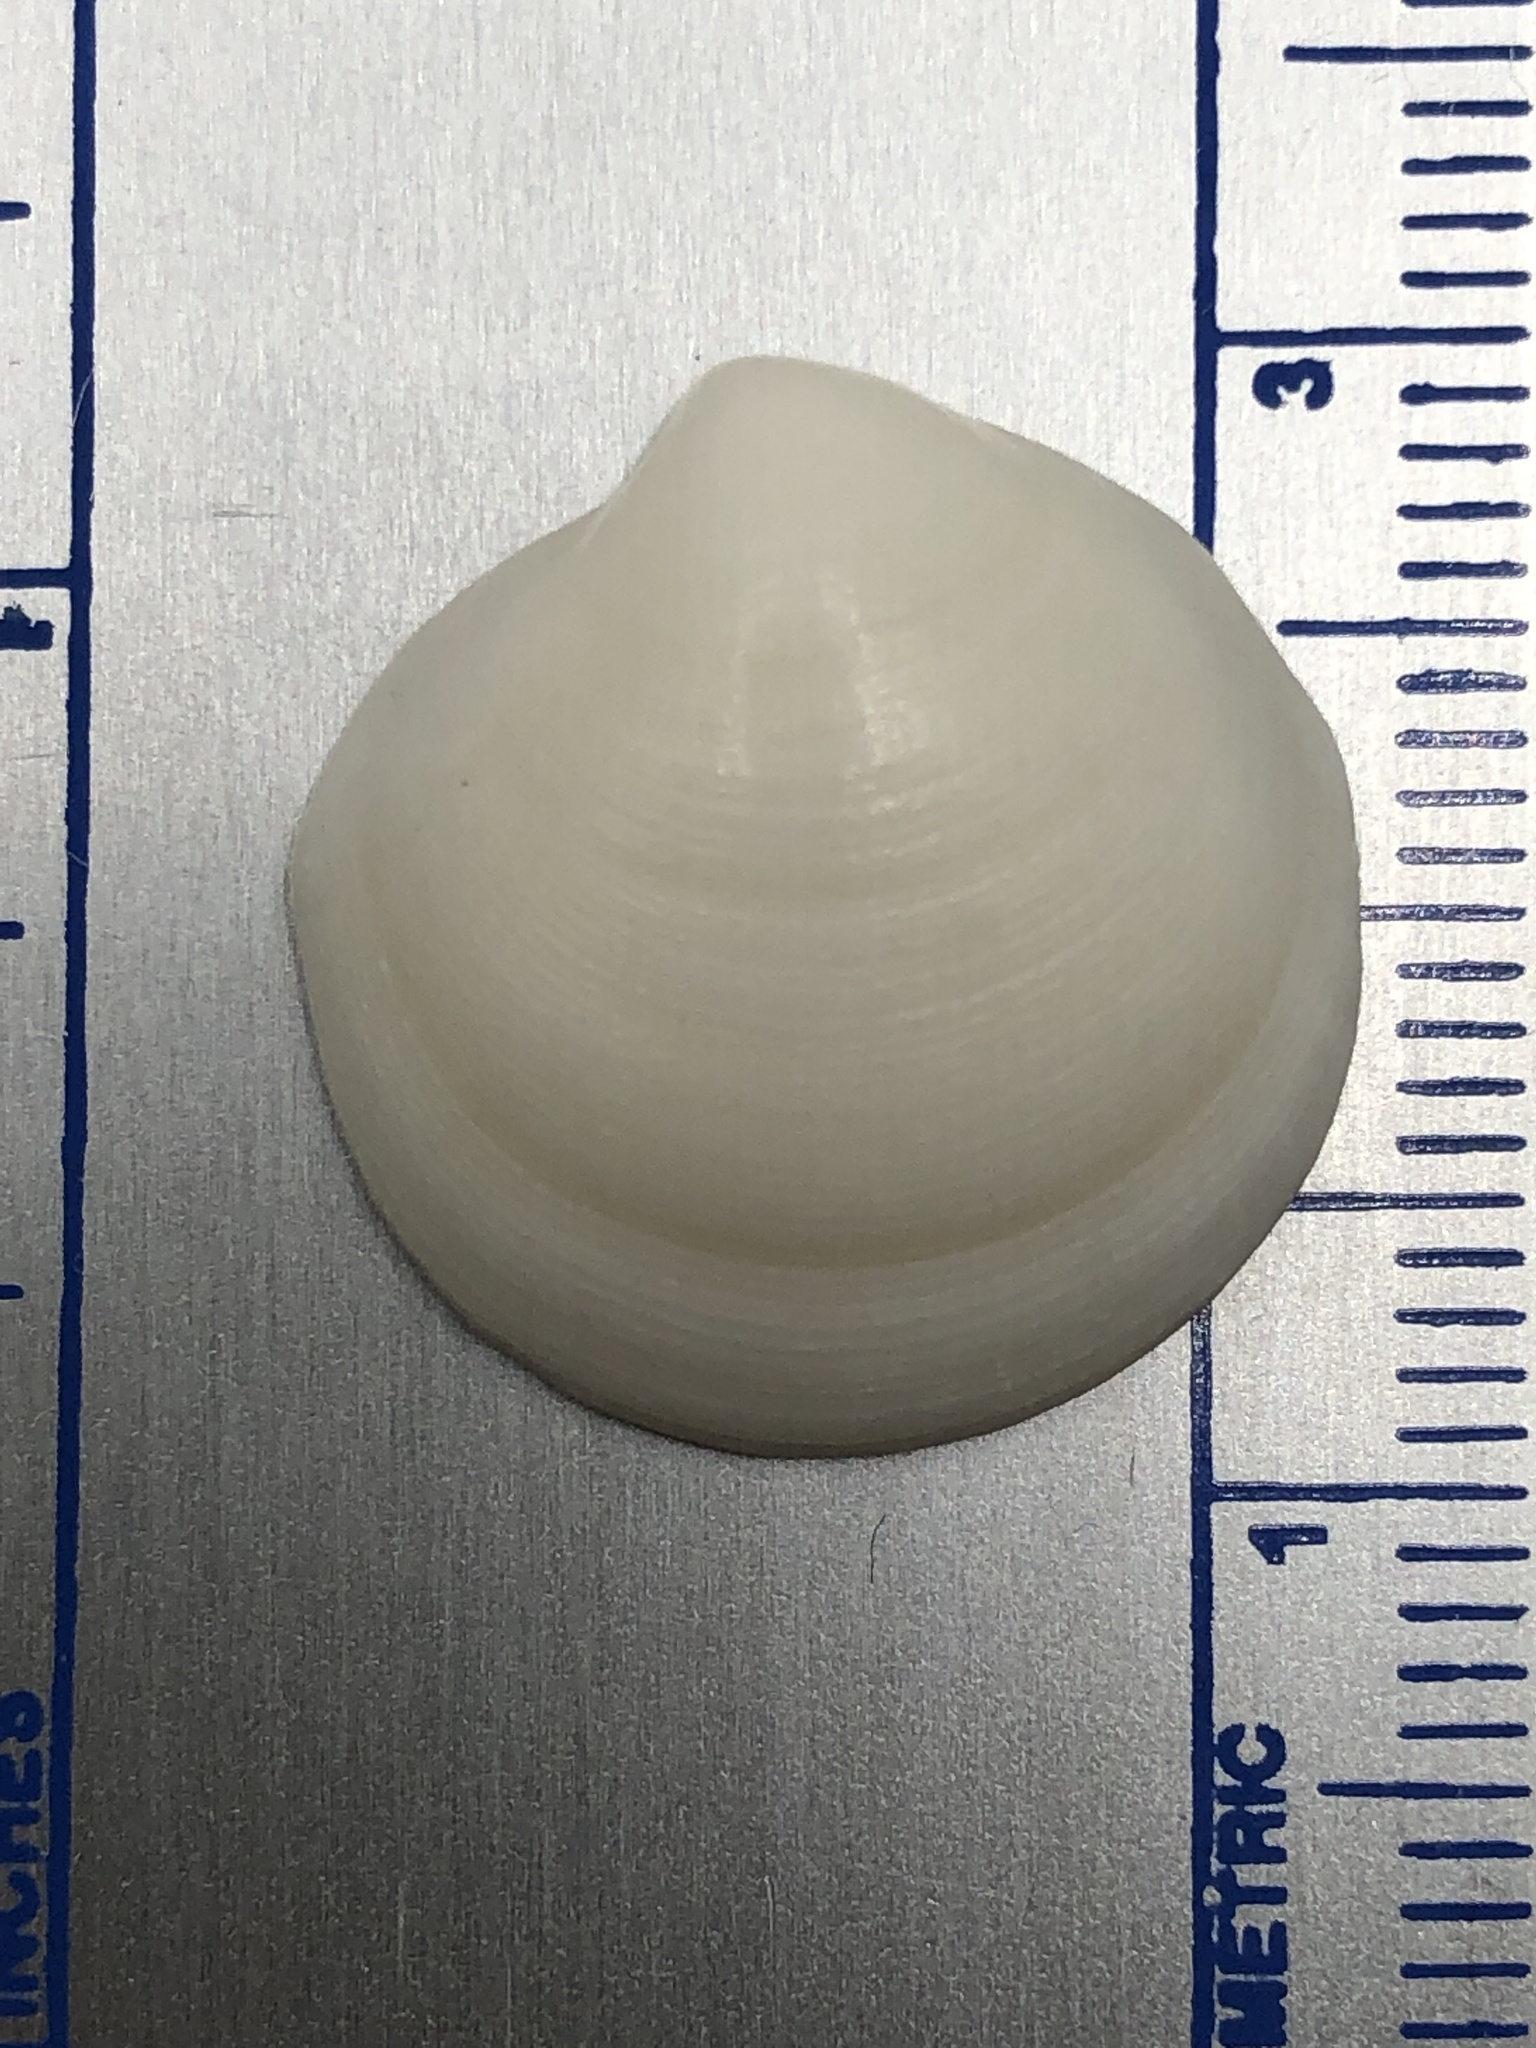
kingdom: Animalia
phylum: Mollusca
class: Bivalvia
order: Lucinida
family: Lucinidae
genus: Callucina
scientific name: Callucina keenae
